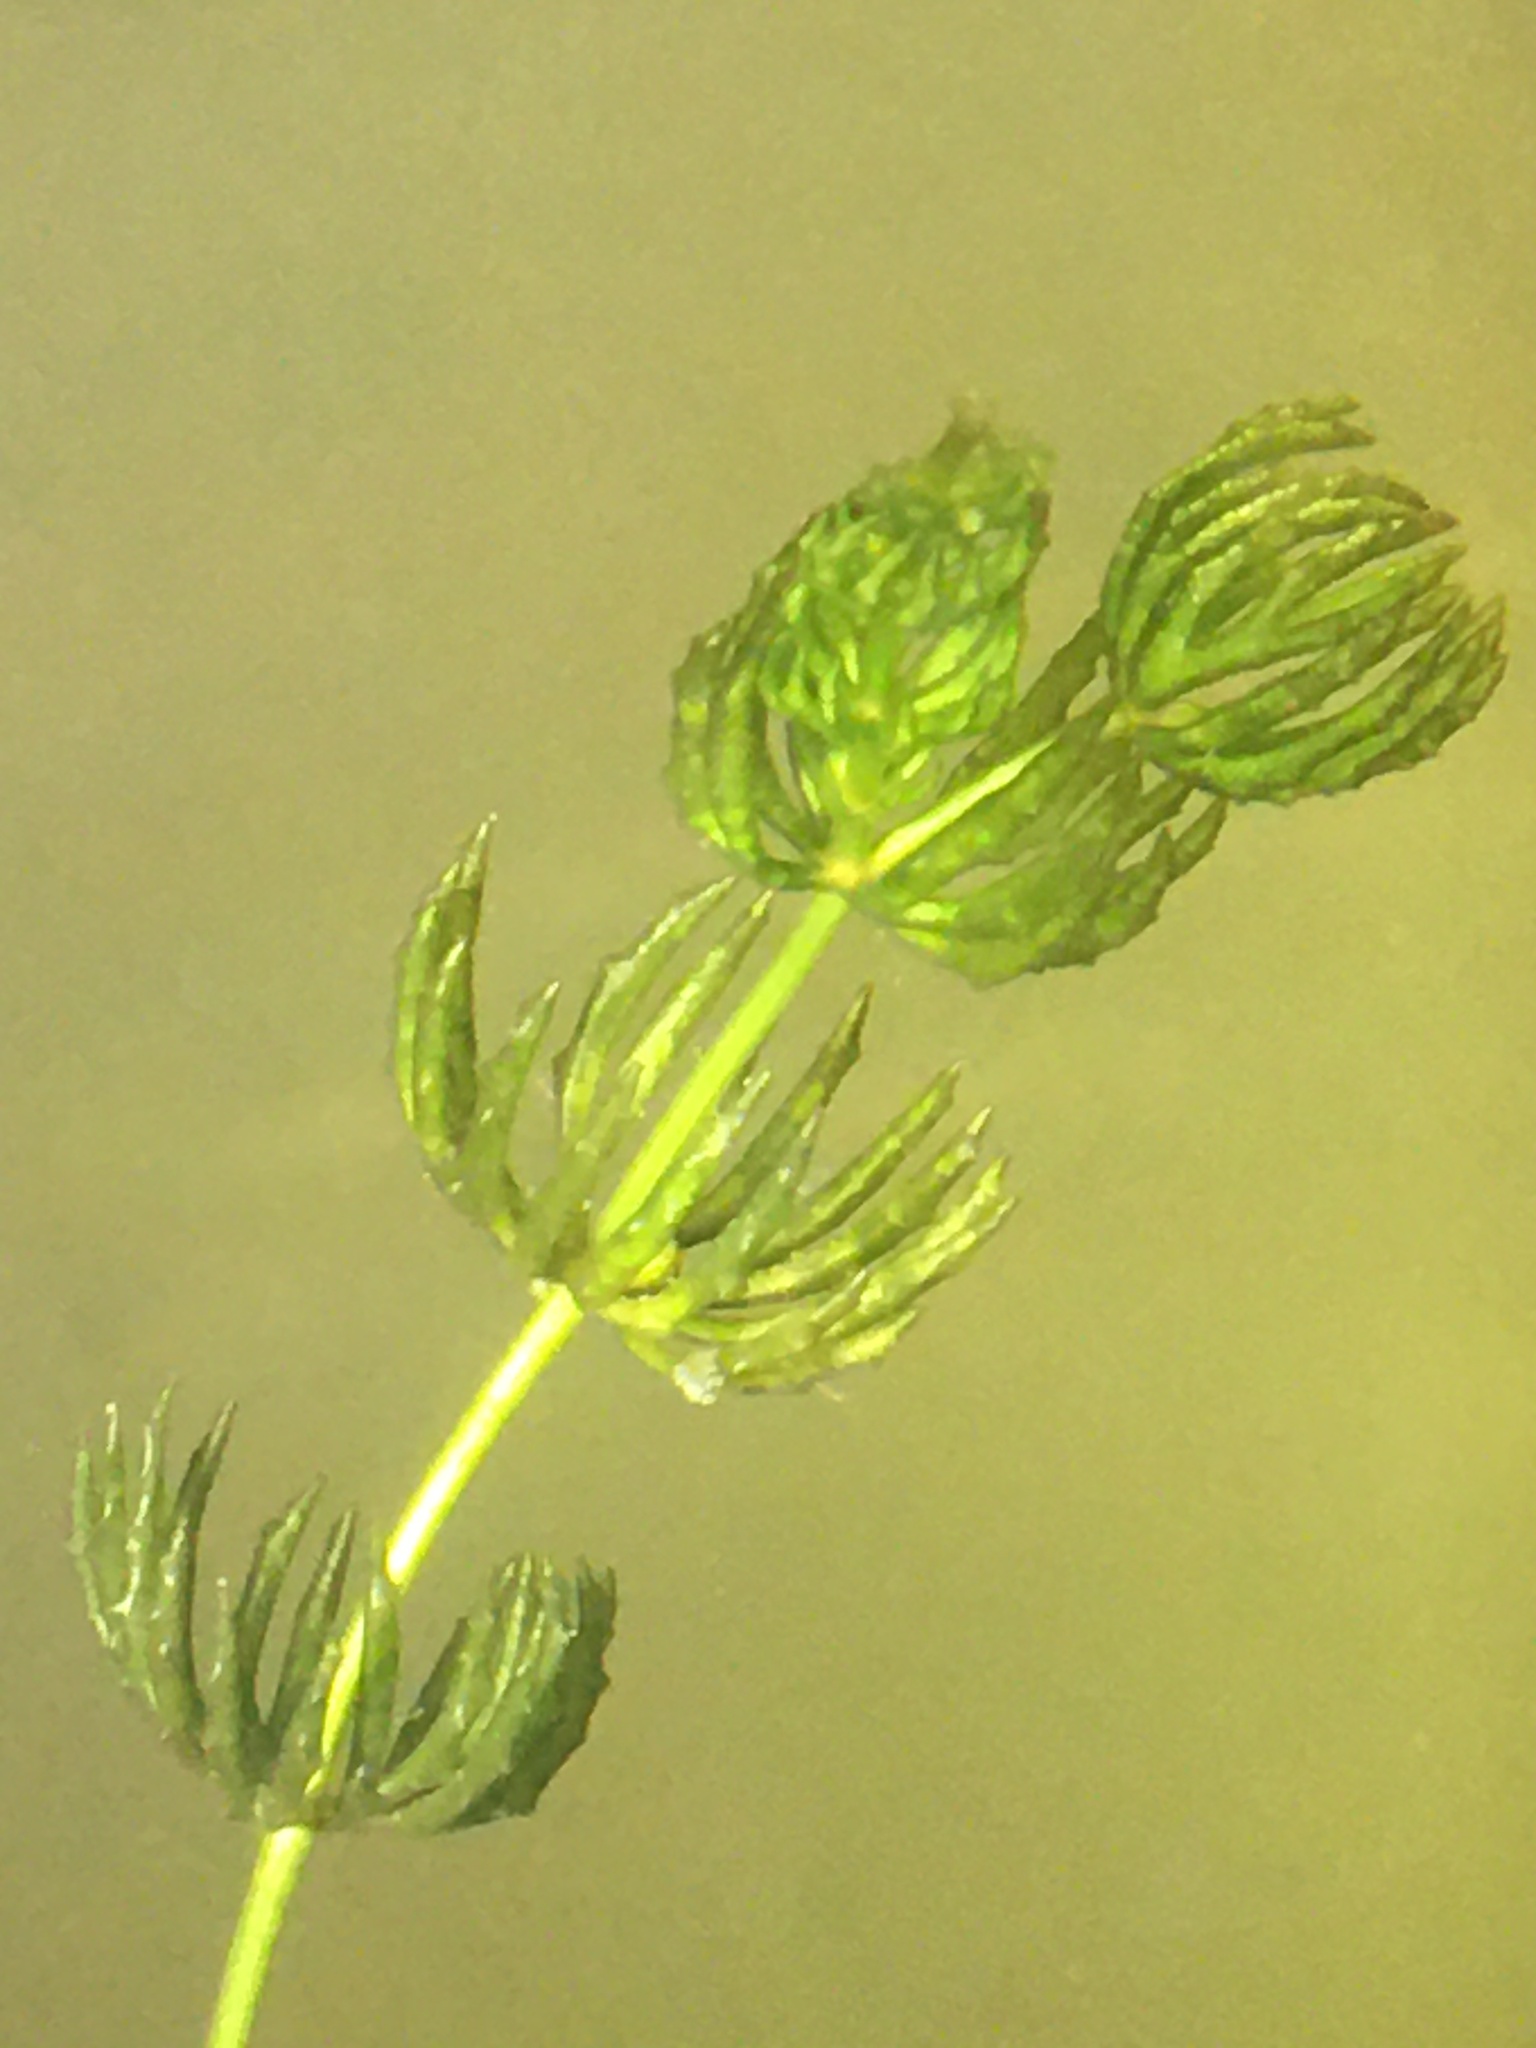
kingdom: Plantae
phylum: Tracheophyta
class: Magnoliopsida
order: Ceratophyllales
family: Ceratophyllaceae
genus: Ceratophyllum
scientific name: Ceratophyllum demersum
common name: Rigid hornwort
